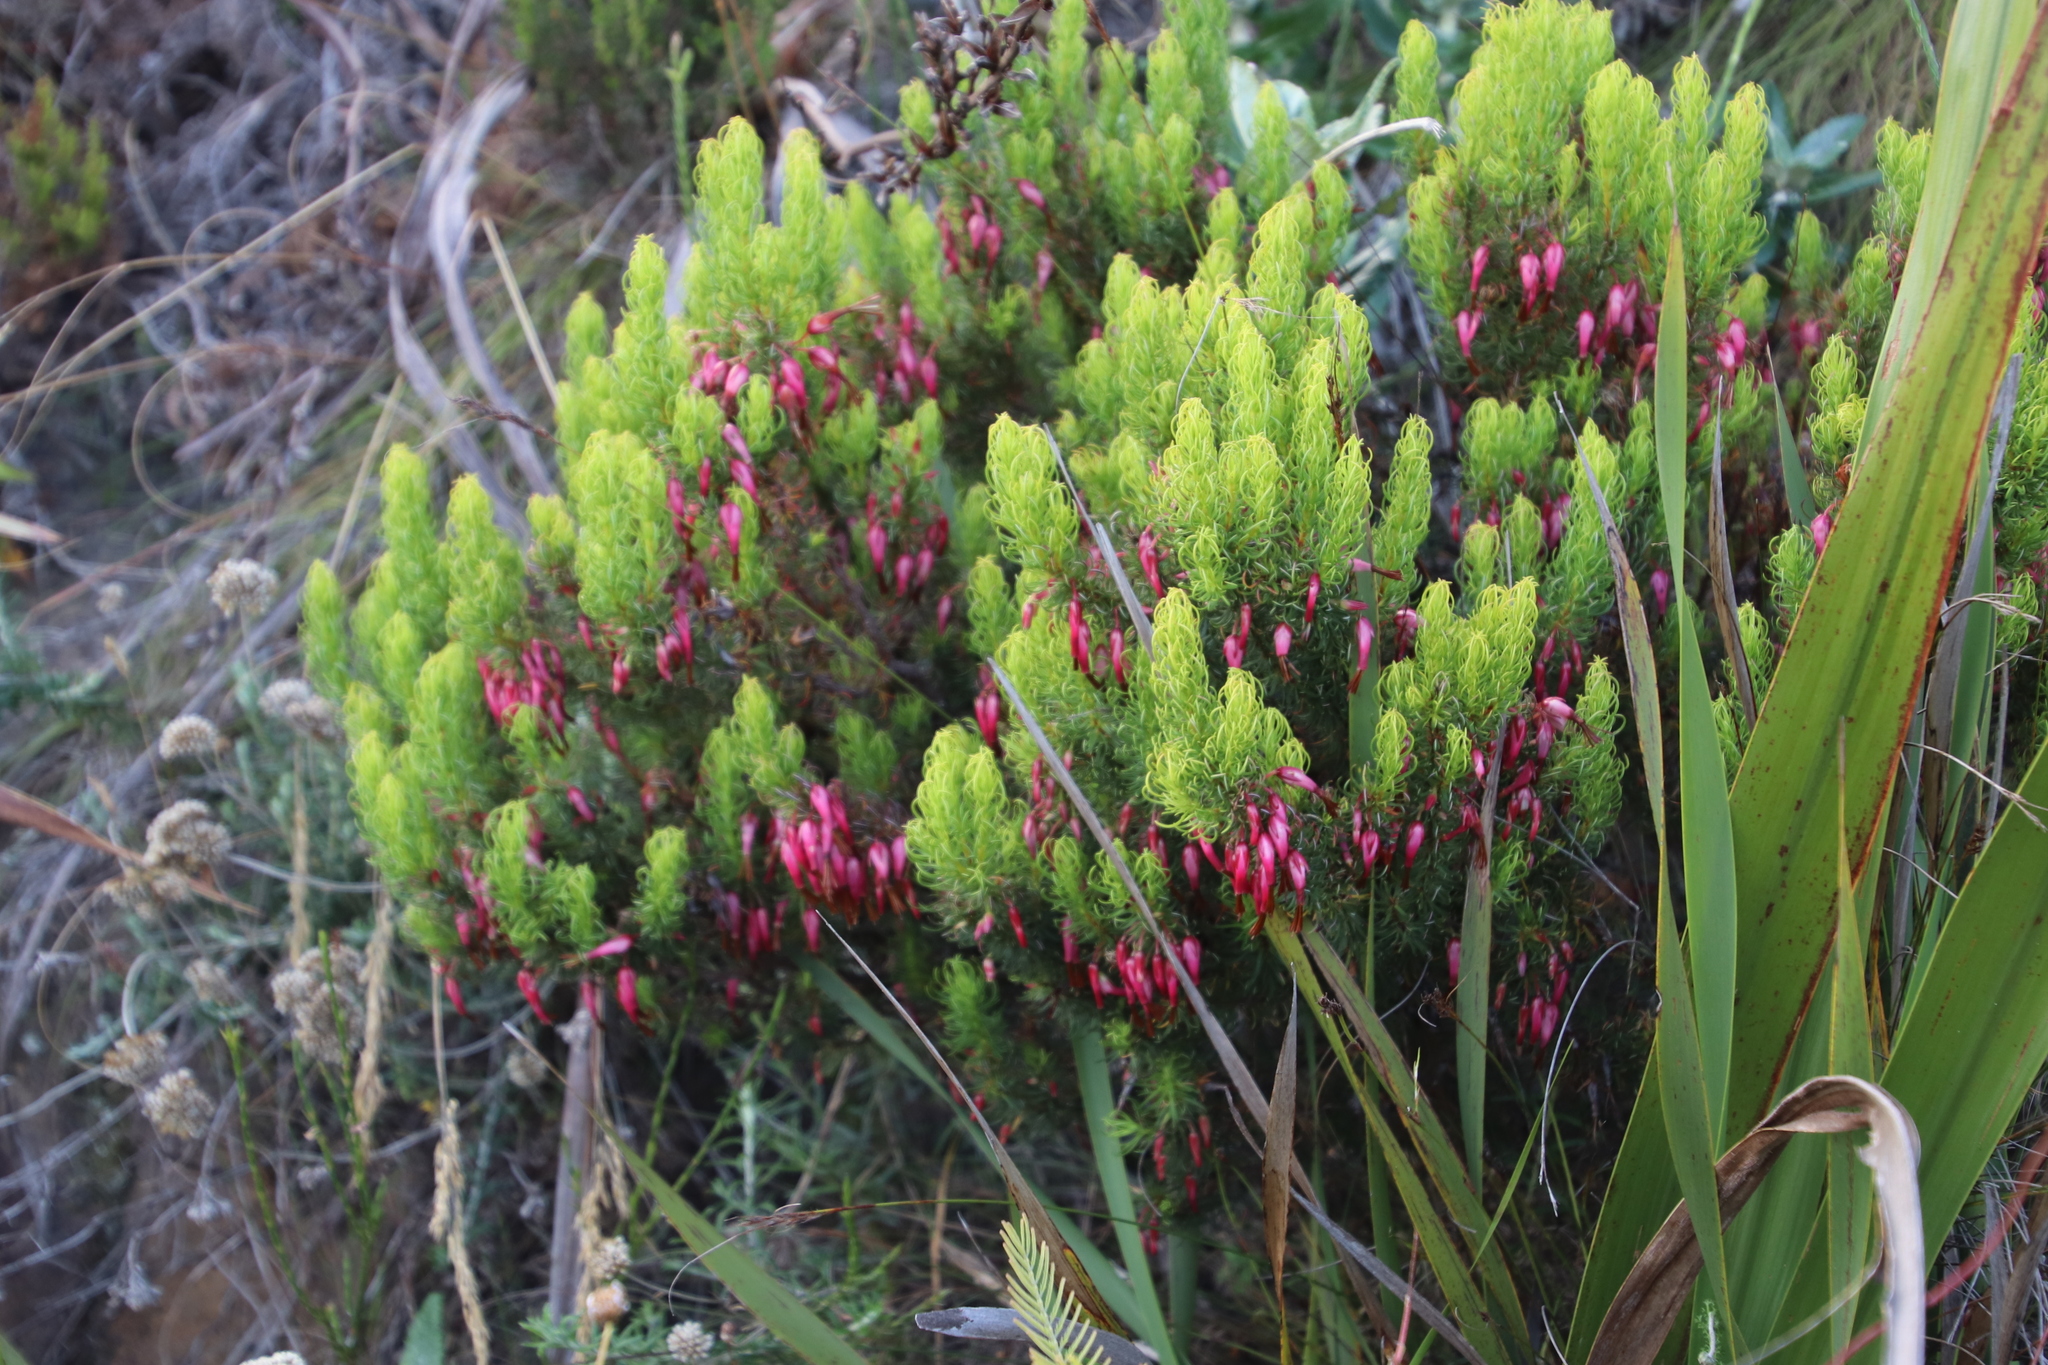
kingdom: Plantae
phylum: Tracheophyta
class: Magnoliopsida
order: Ericales
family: Ericaceae
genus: Erica
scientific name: Erica plukenetii
